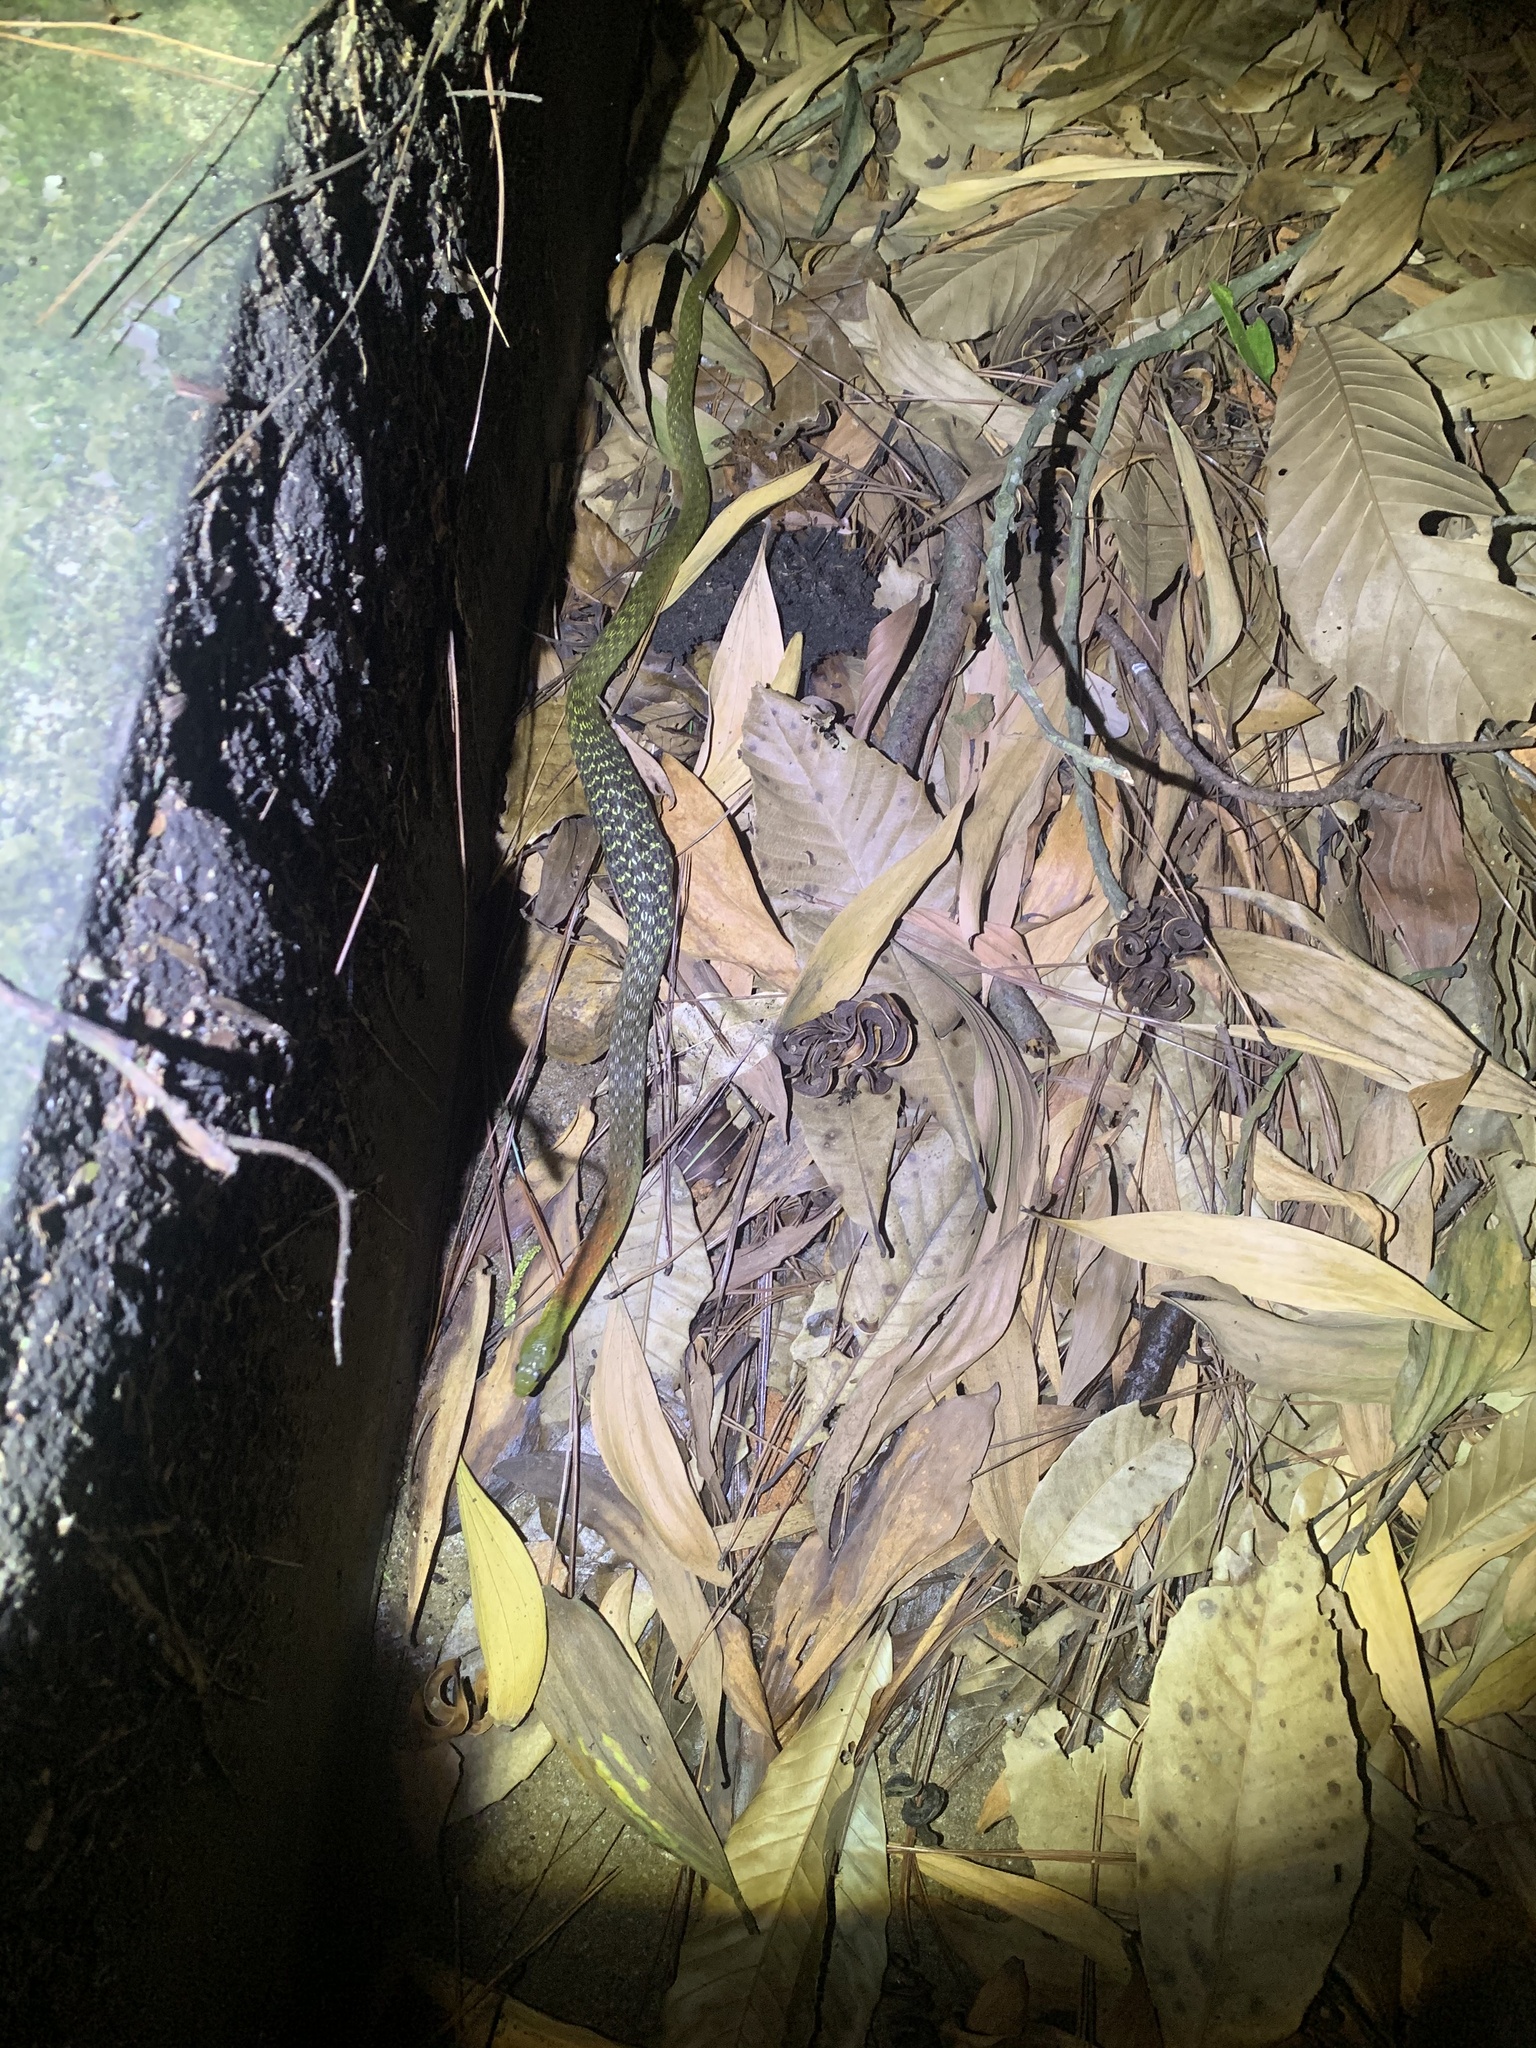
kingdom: Animalia
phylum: Chordata
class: Squamata
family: Colubridae
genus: Rhabdophis
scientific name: Rhabdophis helleri
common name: Heller’s red-necked keelback
